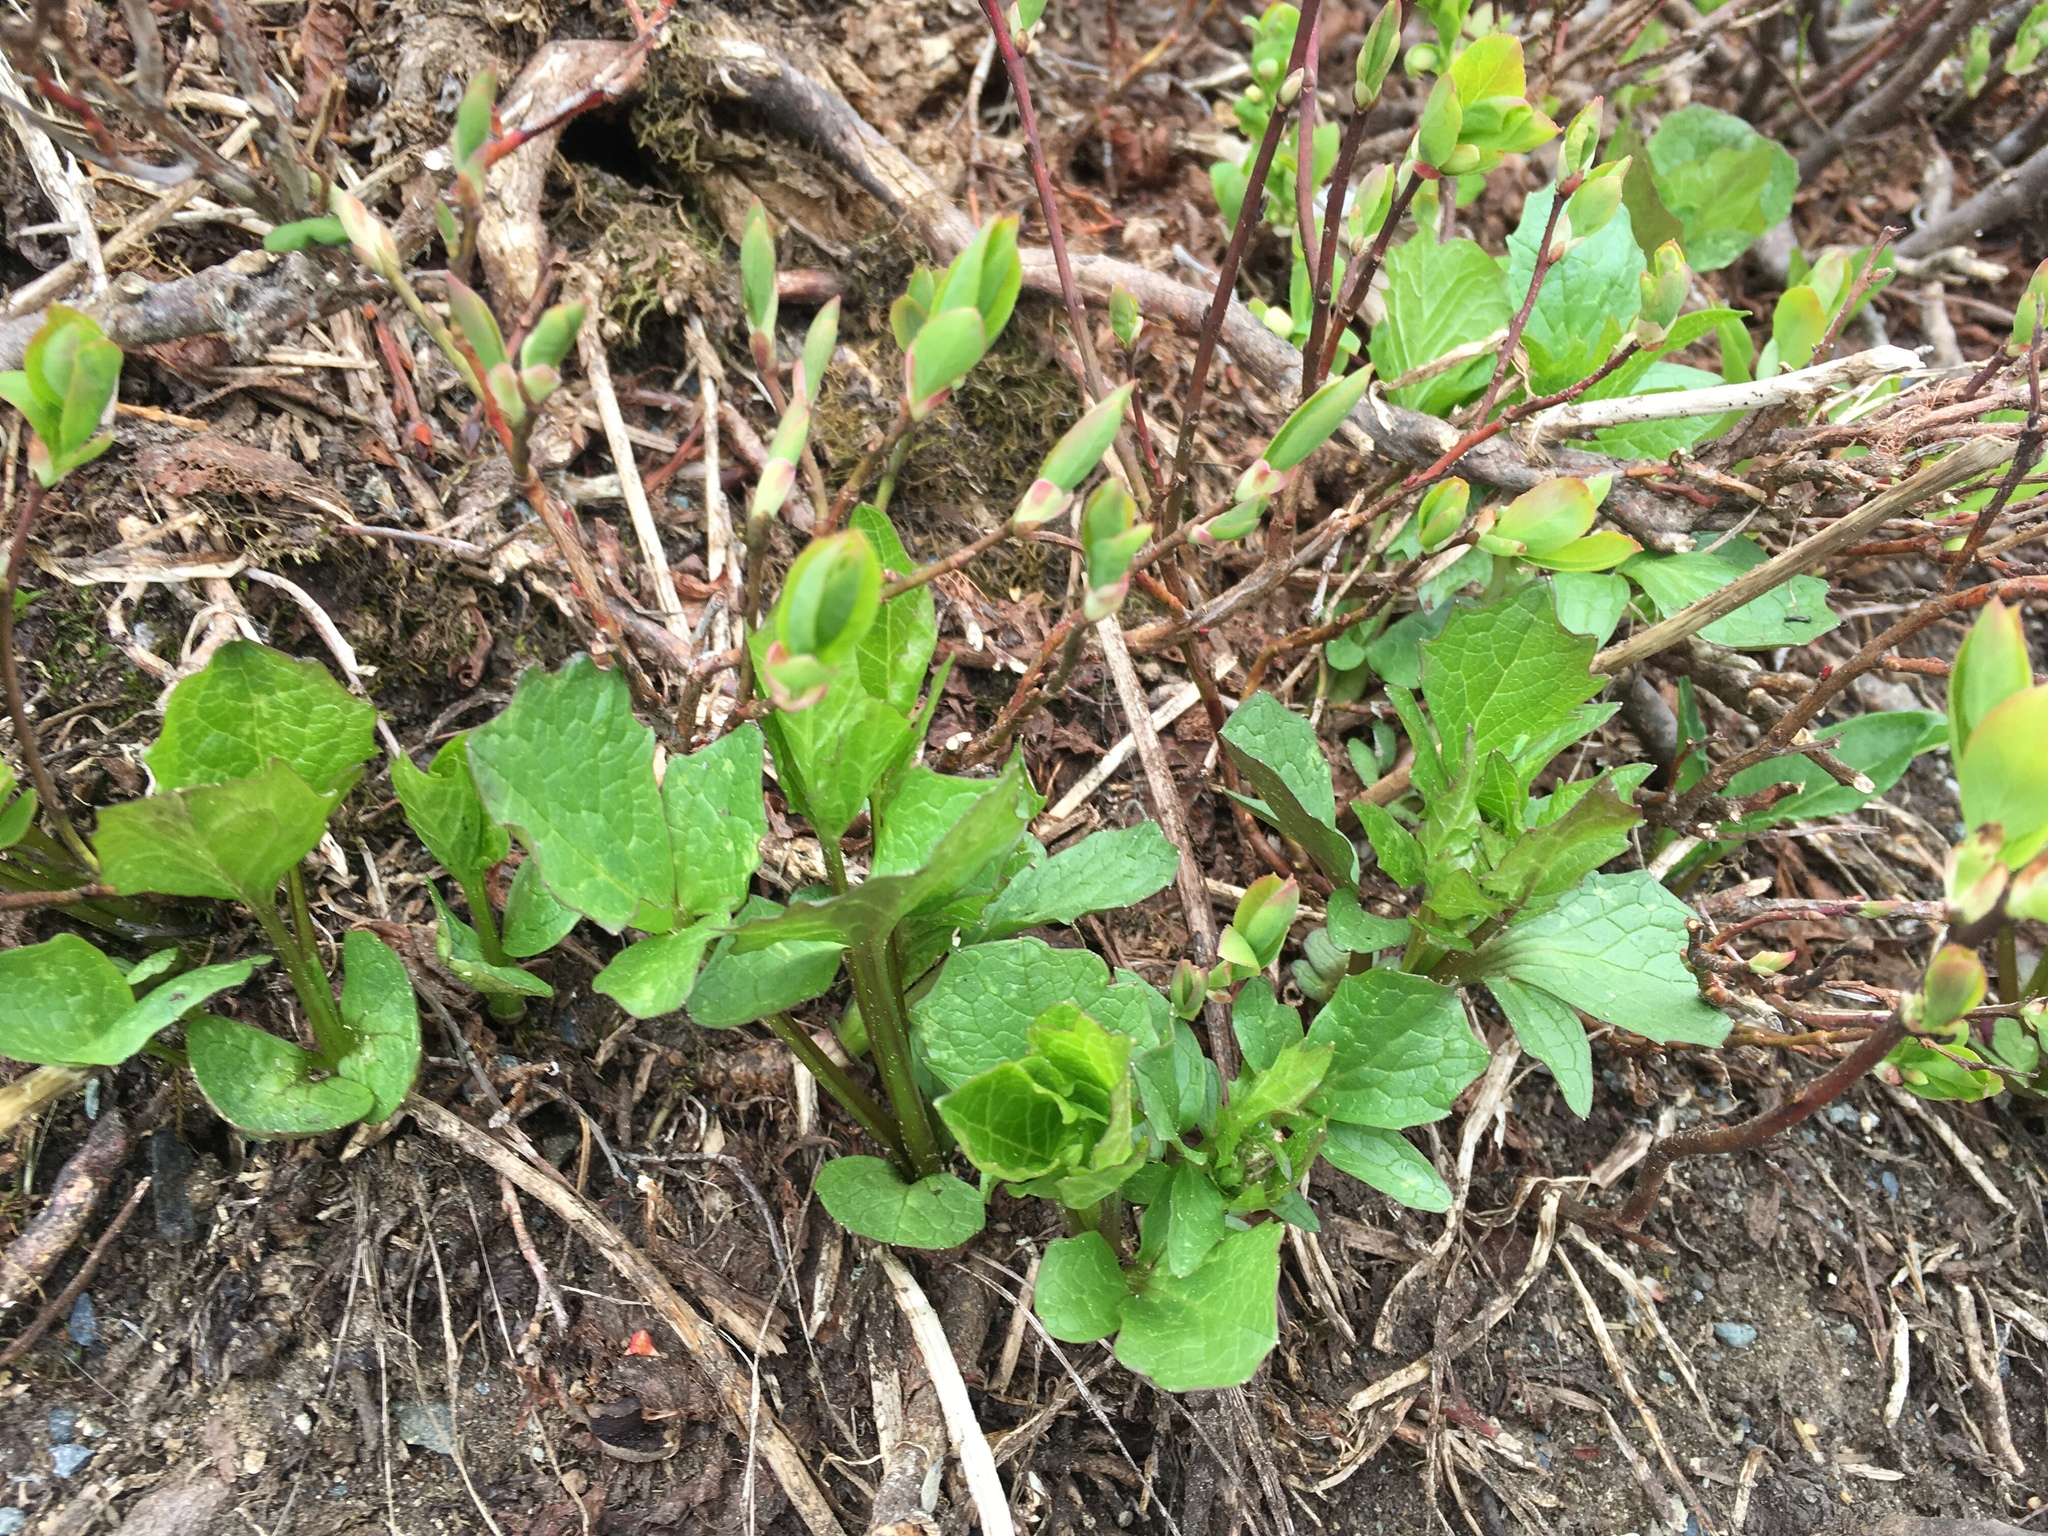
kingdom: Plantae
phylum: Tracheophyta
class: Magnoliopsida
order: Dipsacales
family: Caprifoliaceae
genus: Valeriana
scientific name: Valeriana sitchensis
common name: Pacific valerian
